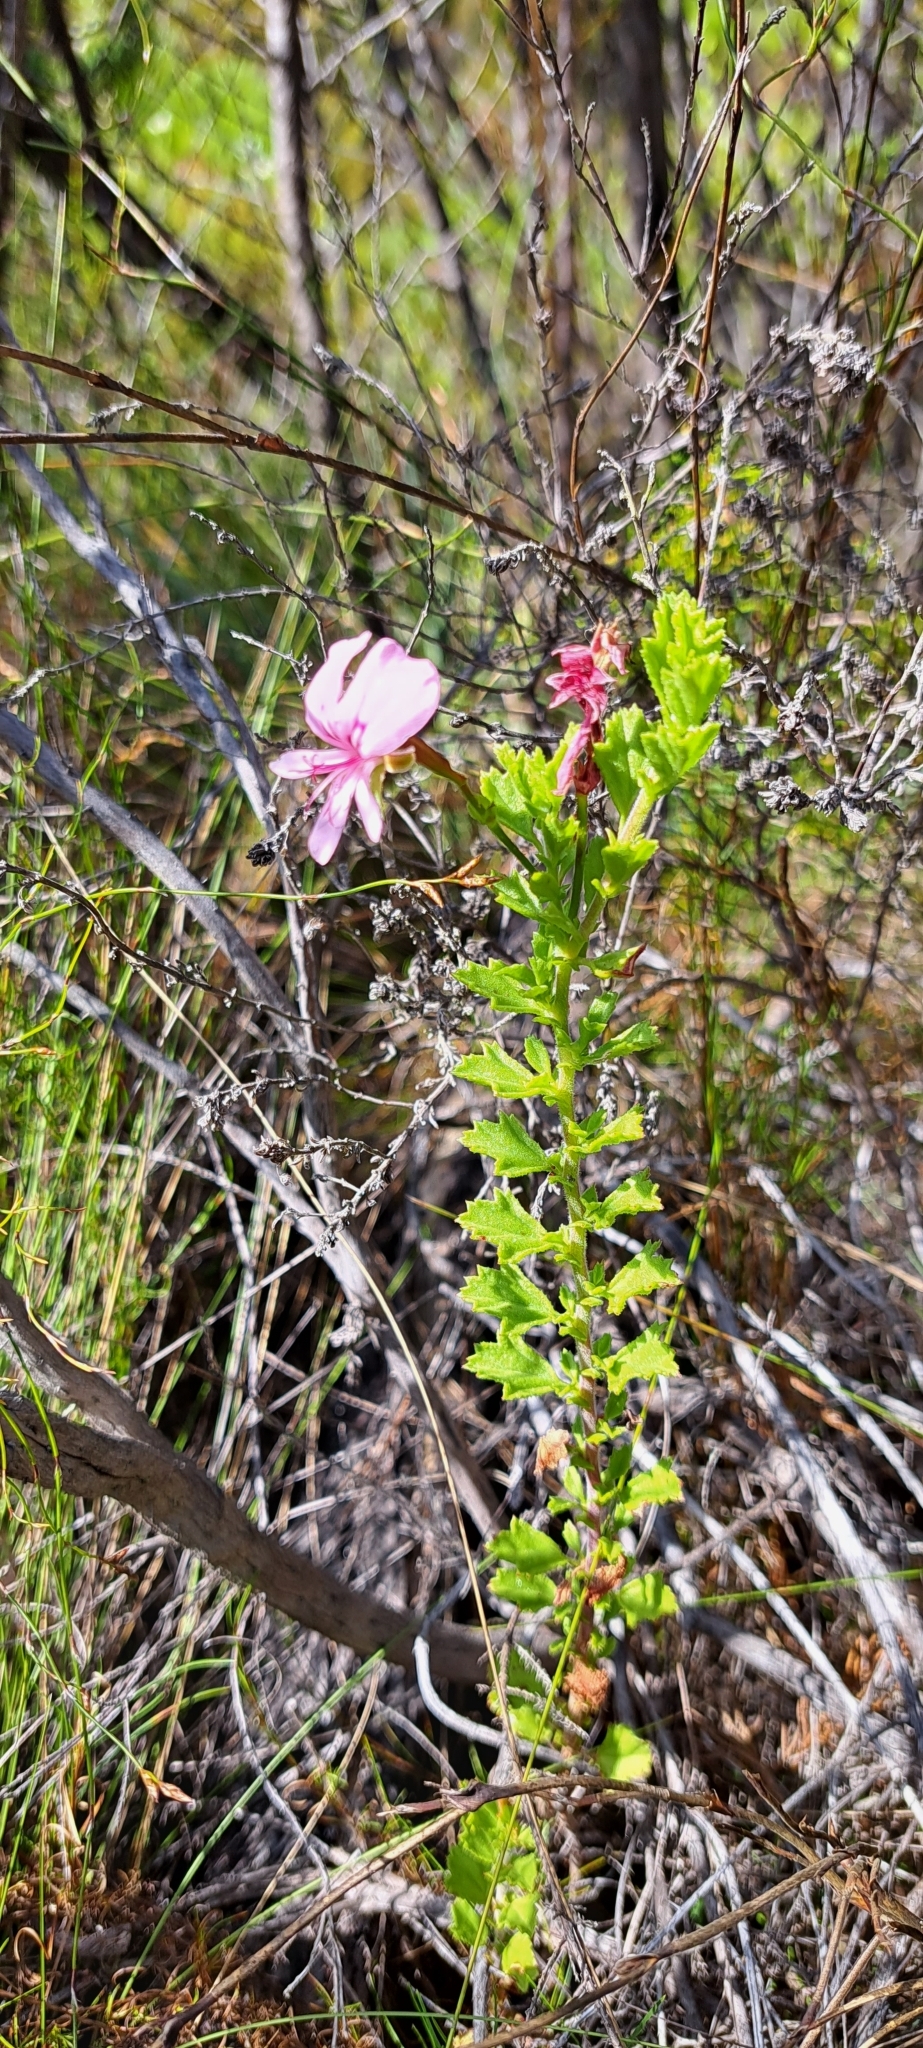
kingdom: Plantae
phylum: Tracheophyta
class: Magnoliopsida
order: Geraniales
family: Geraniaceae
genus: Pelargonium
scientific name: Pelargonium hermaniifolium
